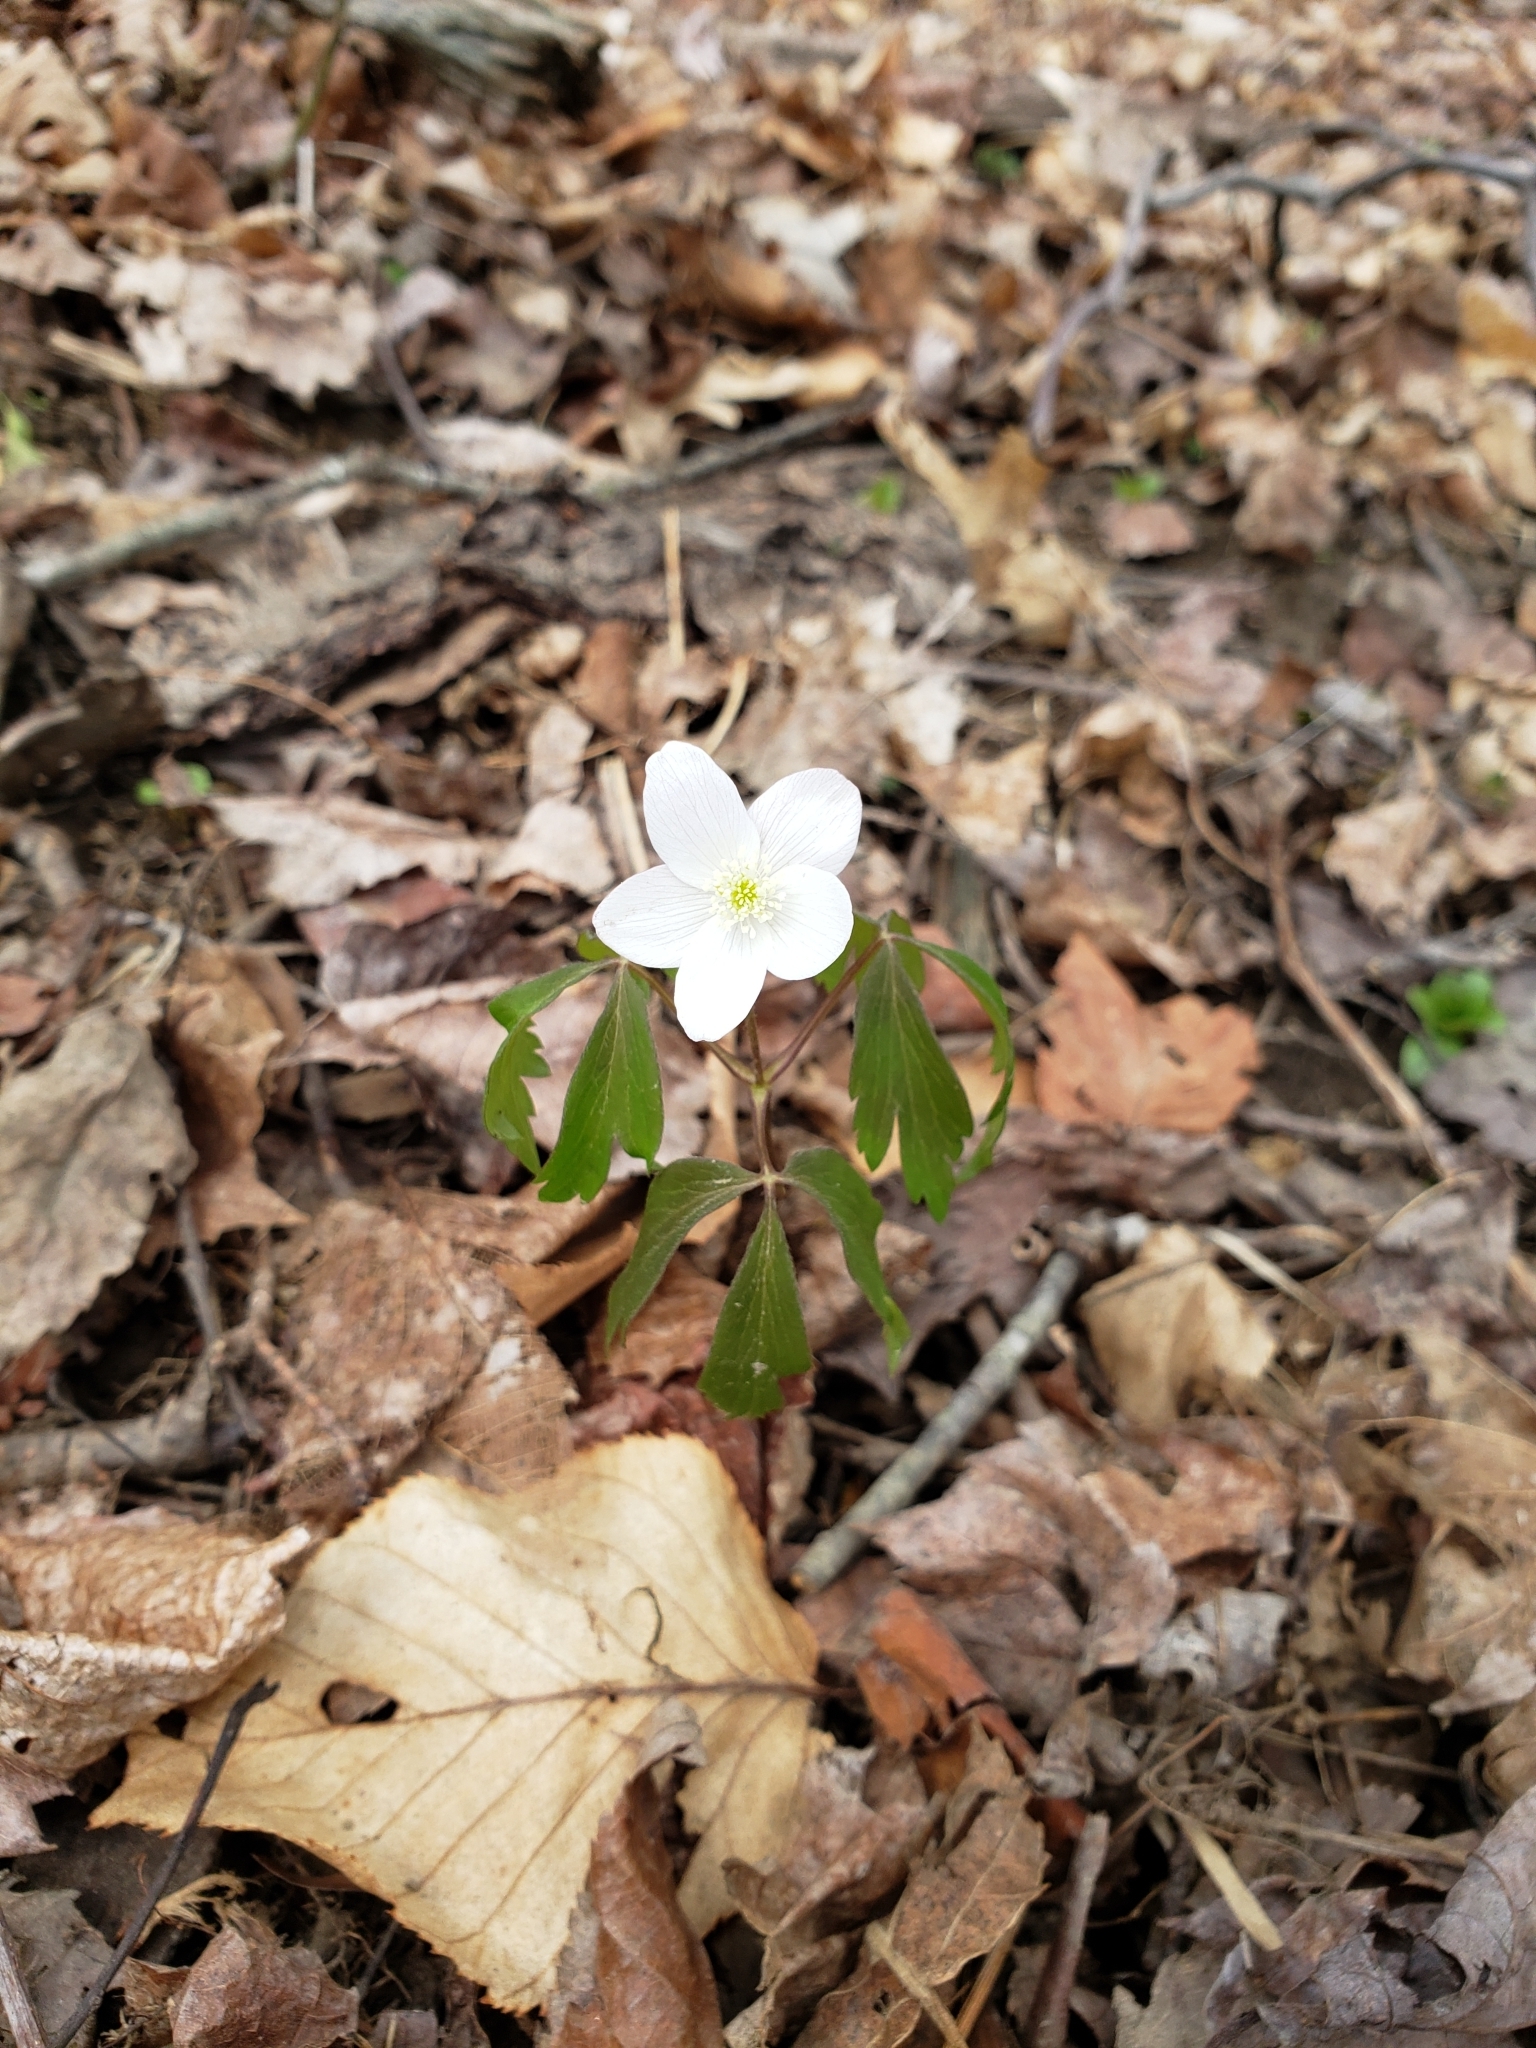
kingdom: Plantae
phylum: Tracheophyta
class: Magnoliopsida
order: Ranunculales
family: Ranunculaceae
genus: Anemone
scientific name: Anemone quinquefolia
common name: Wood anemone
